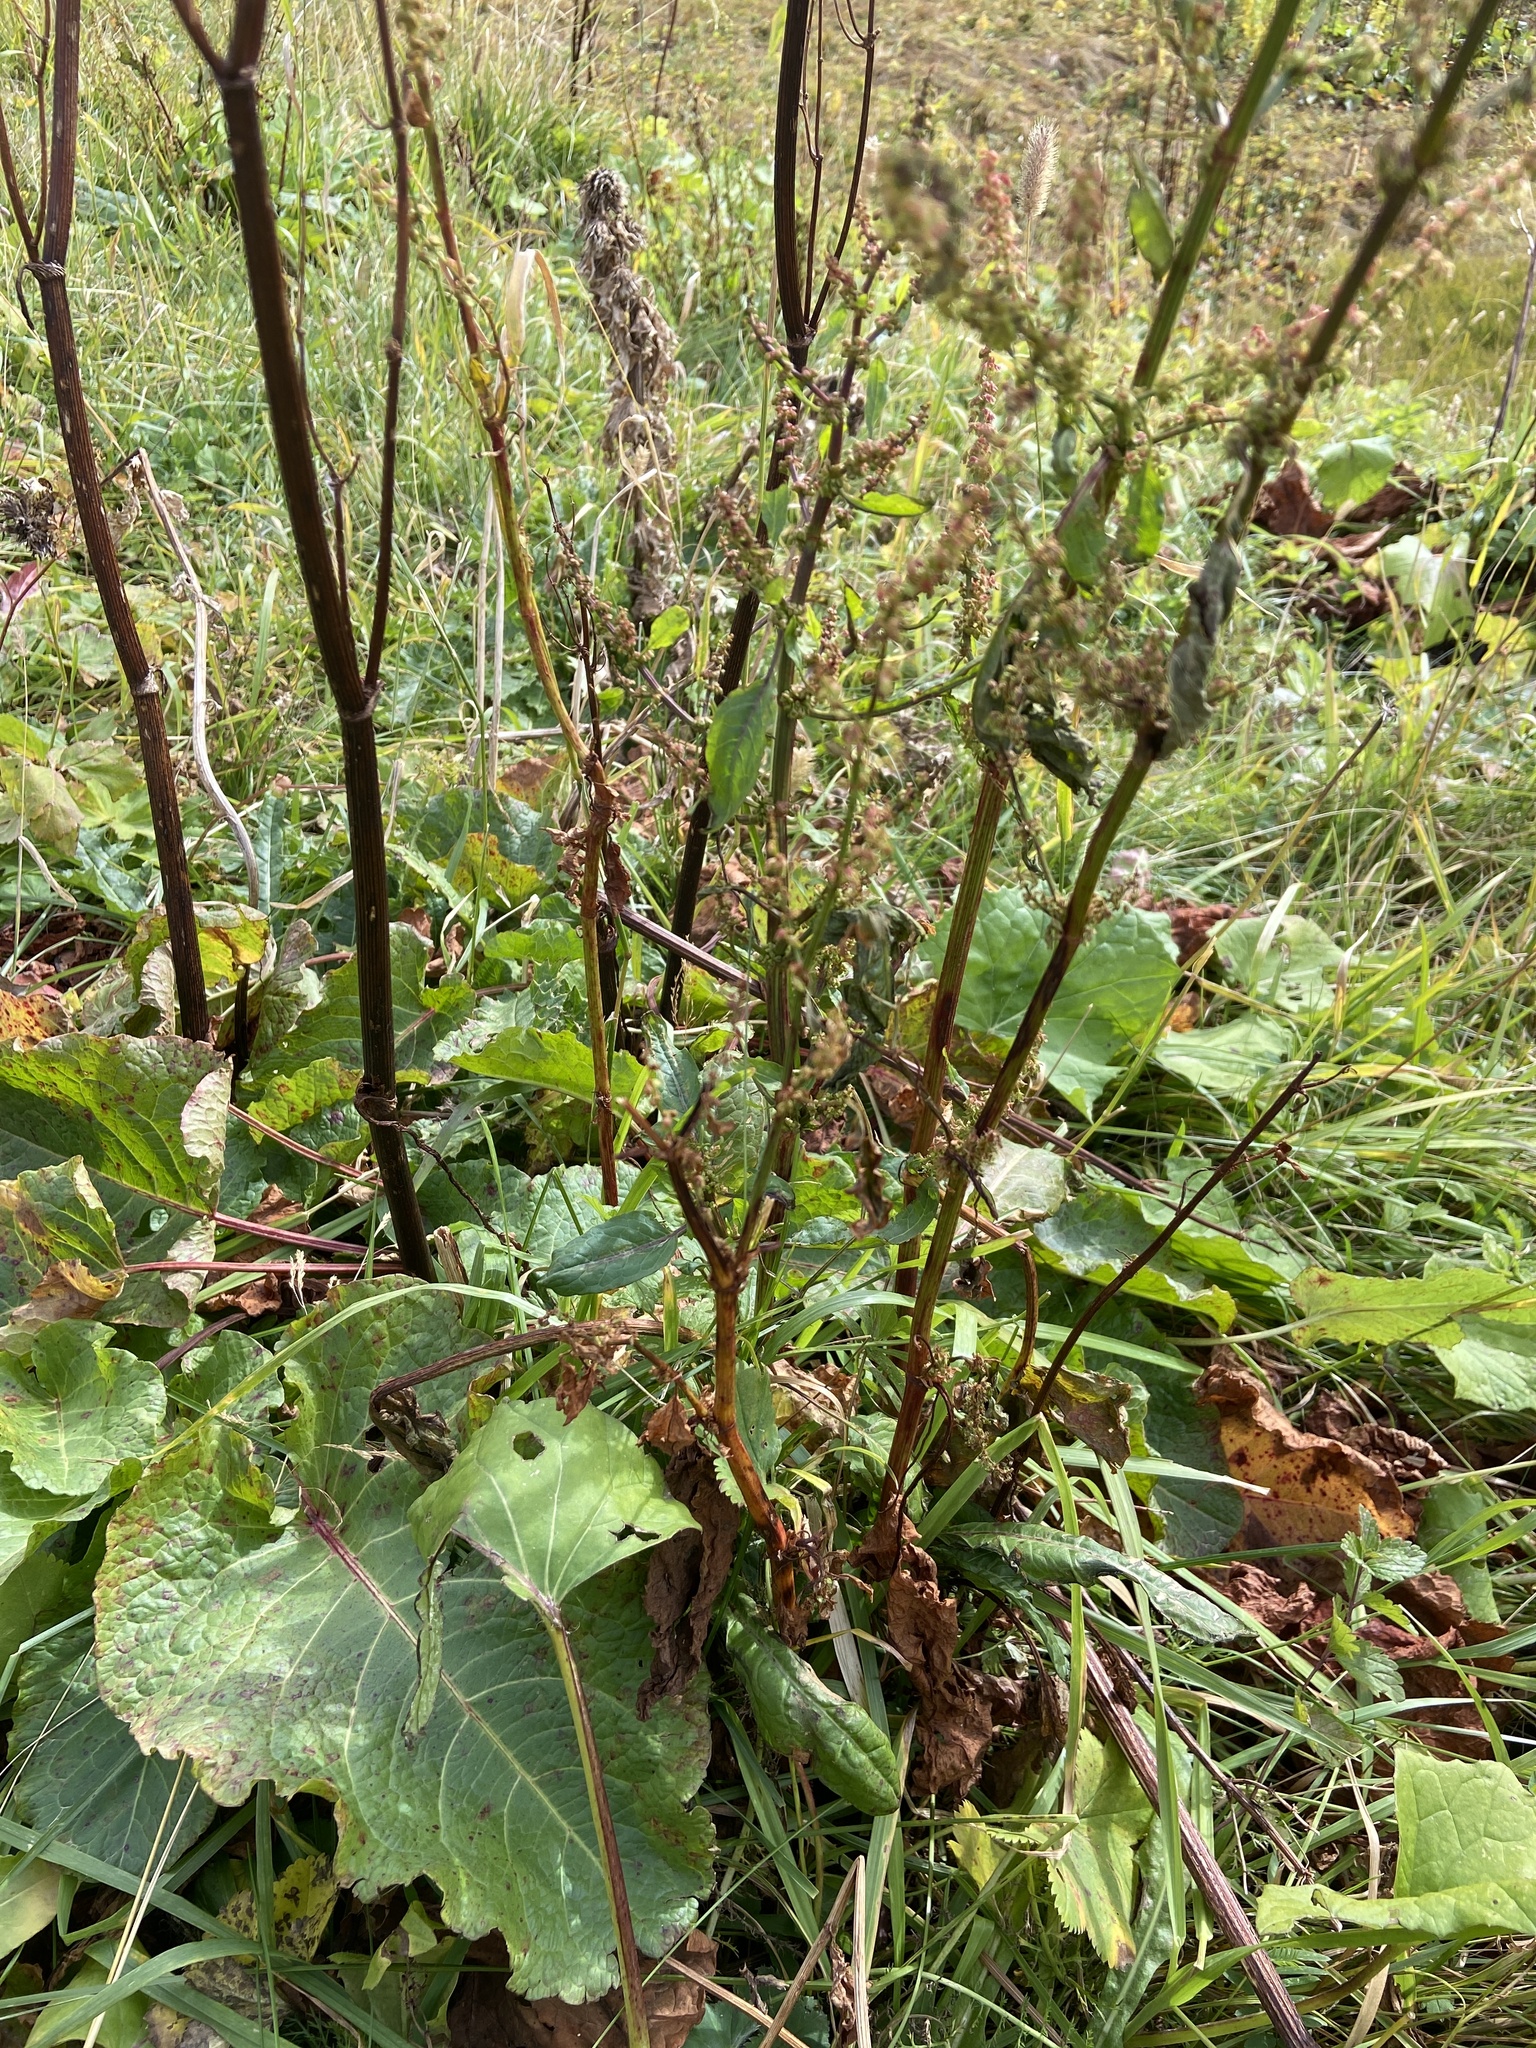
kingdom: Plantae
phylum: Tracheophyta
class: Magnoliopsida
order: Caryophyllales
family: Polygonaceae
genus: Rumex
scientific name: Rumex alpinus
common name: Alpine dock
